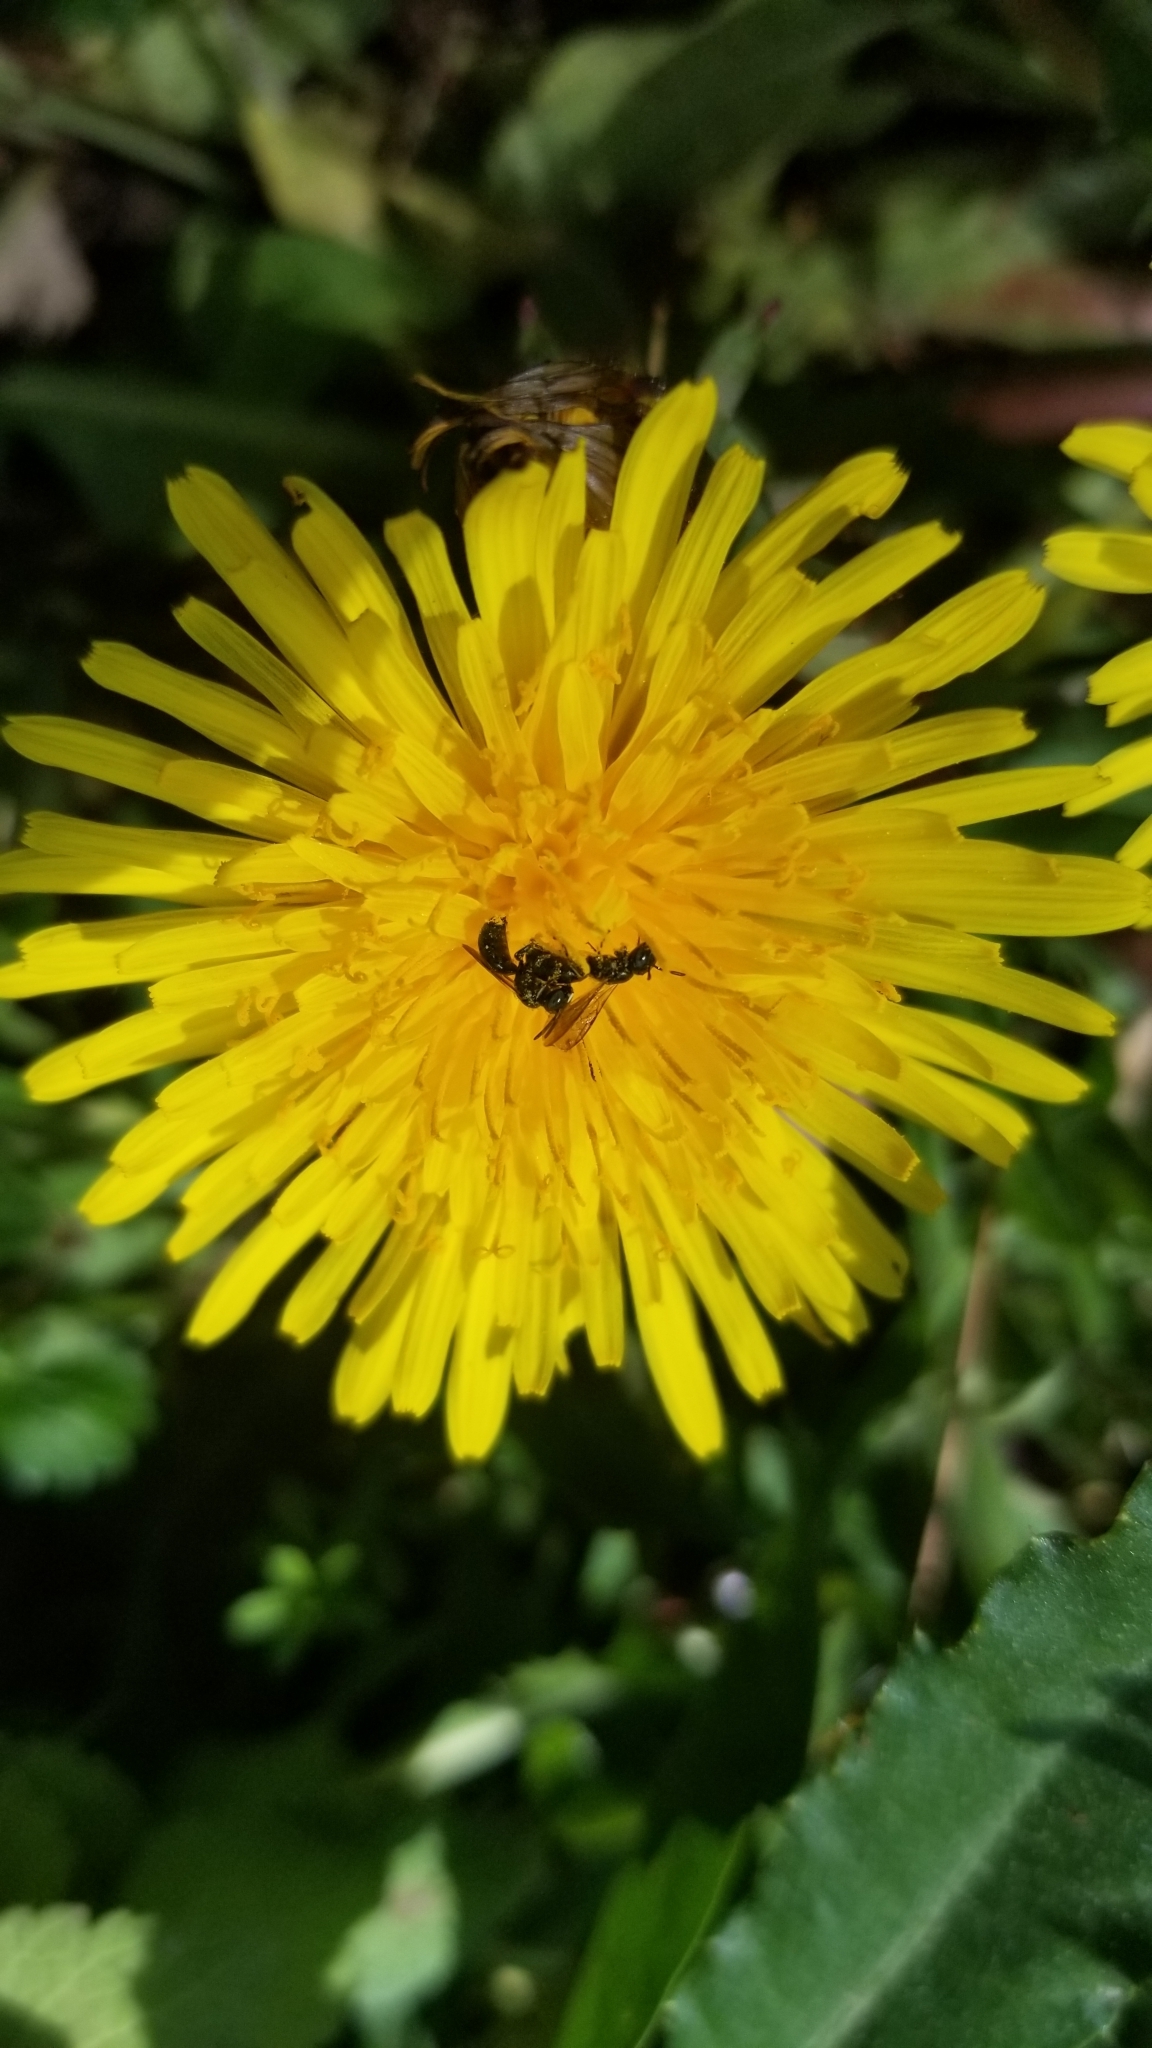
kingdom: Animalia
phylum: Arthropoda
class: Insecta
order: Hymenoptera
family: Formicidae
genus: Tapinoma
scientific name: Tapinoma sessile
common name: Odorous house ant
